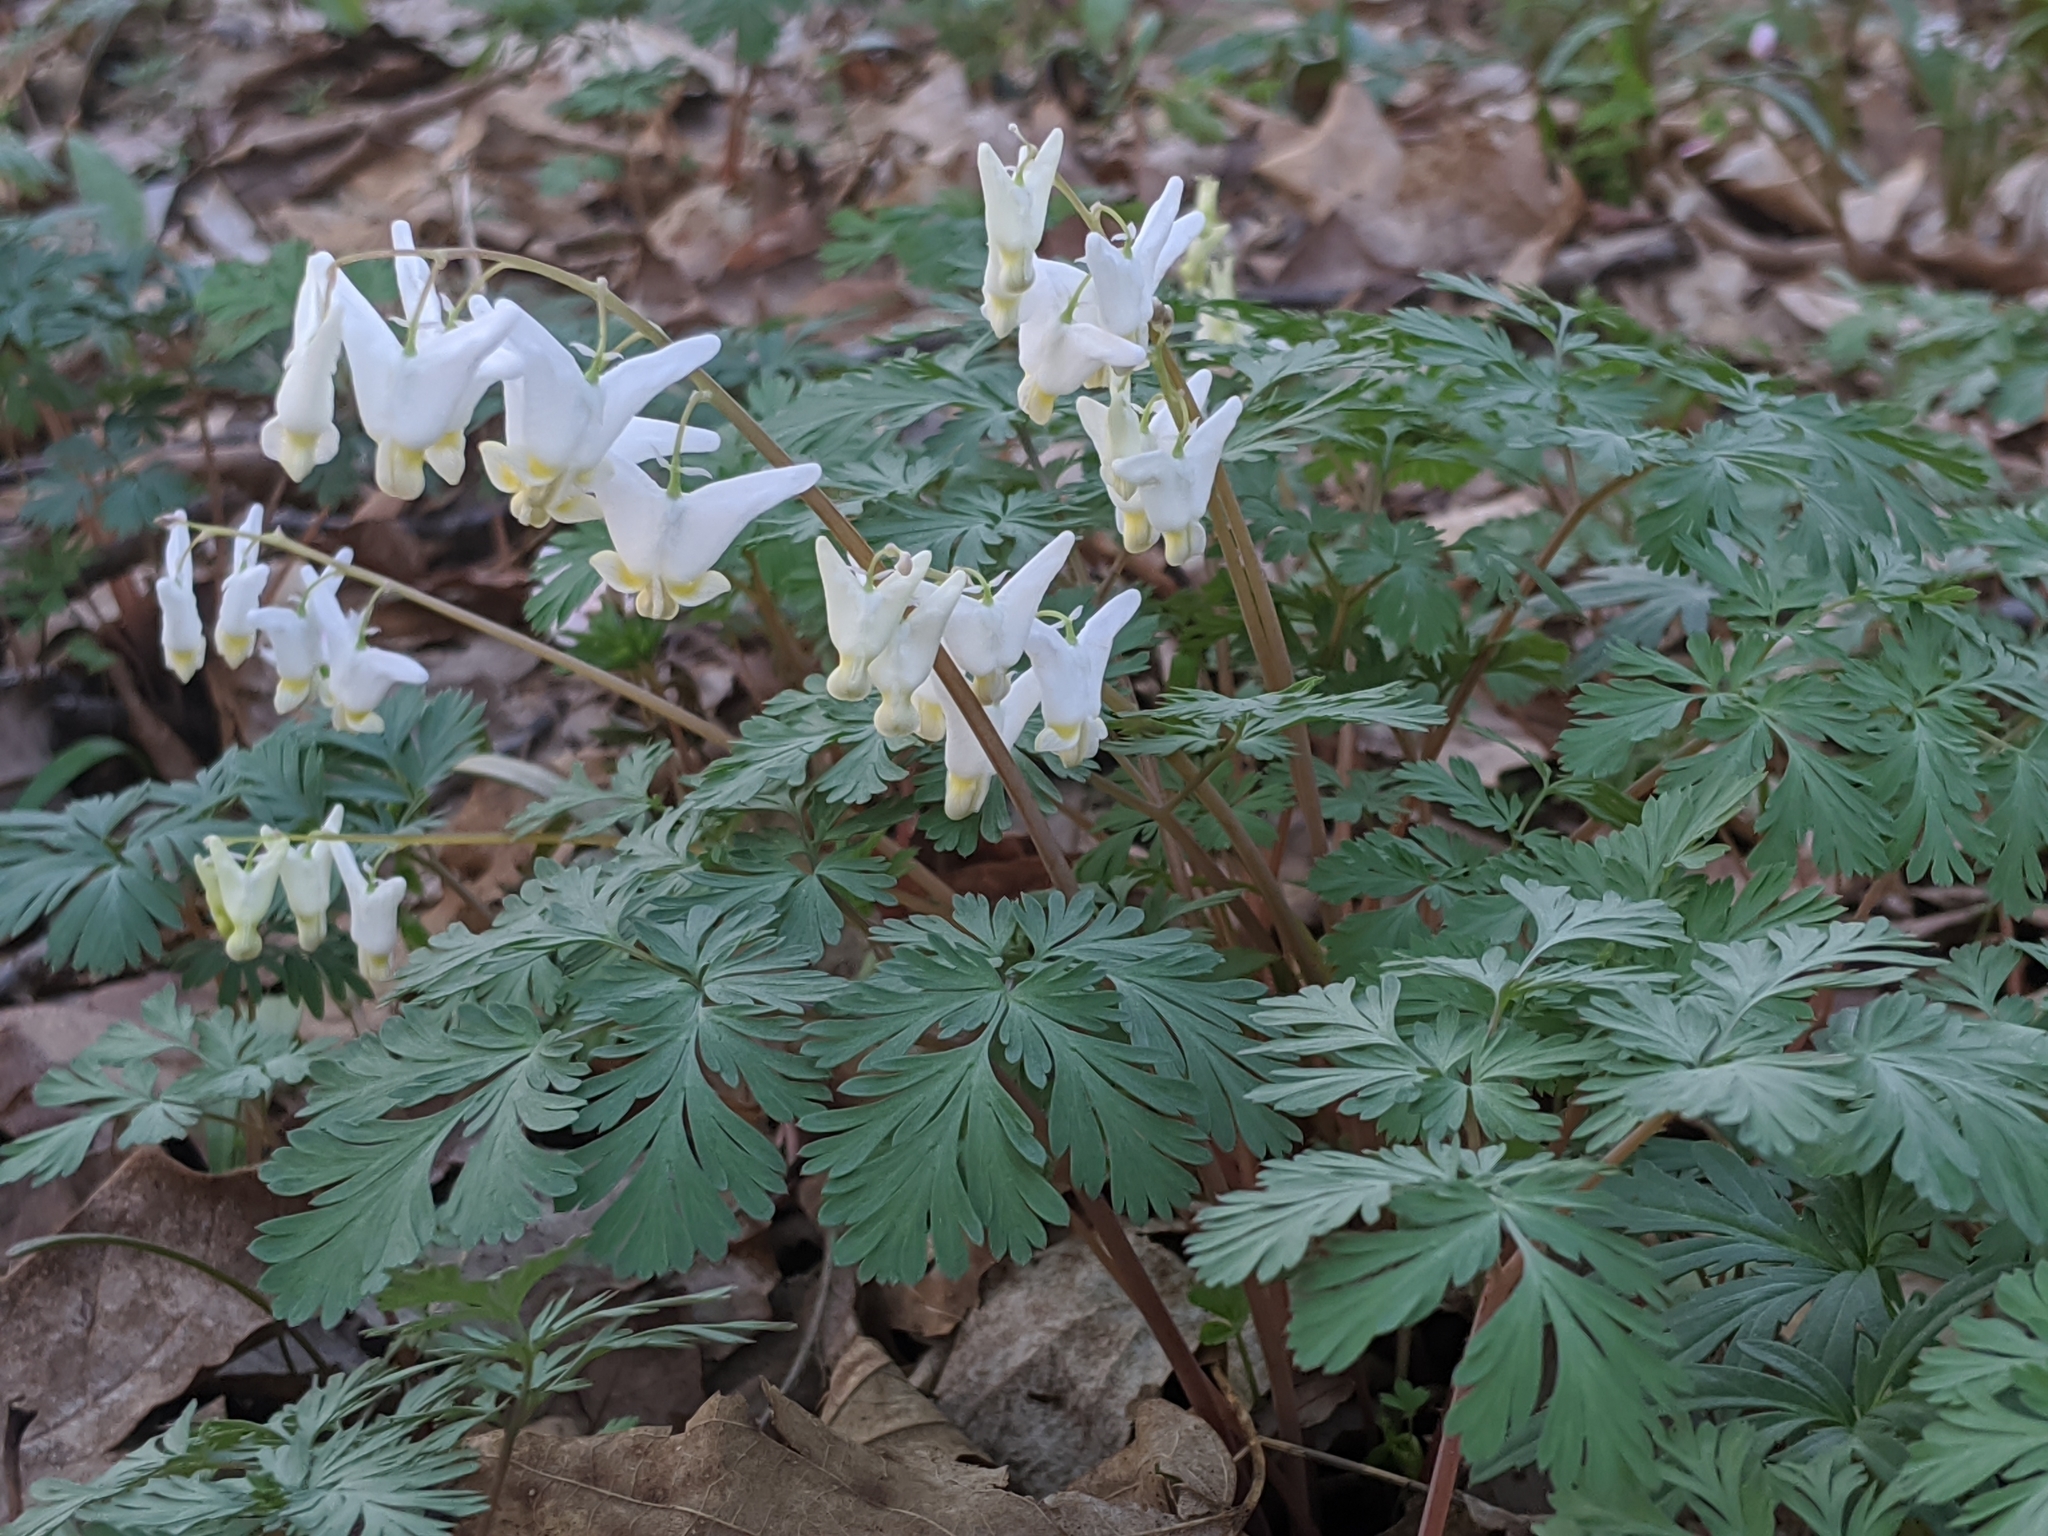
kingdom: Plantae
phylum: Tracheophyta
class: Magnoliopsida
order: Ranunculales
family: Papaveraceae
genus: Dicentra
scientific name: Dicentra cucullaria
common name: Dutchman's breeches
